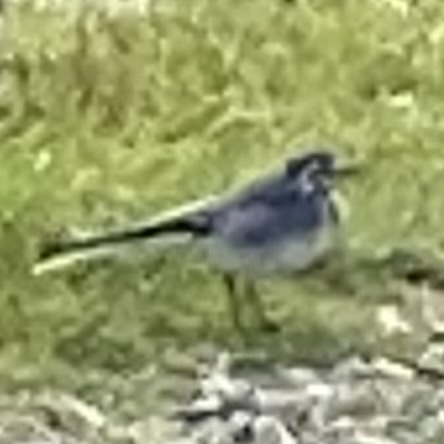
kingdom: Animalia
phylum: Chordata
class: Aves
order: Passeriformes
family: Motacillidae
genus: Motacilla
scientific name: Motacilla alba
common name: White wagtail
